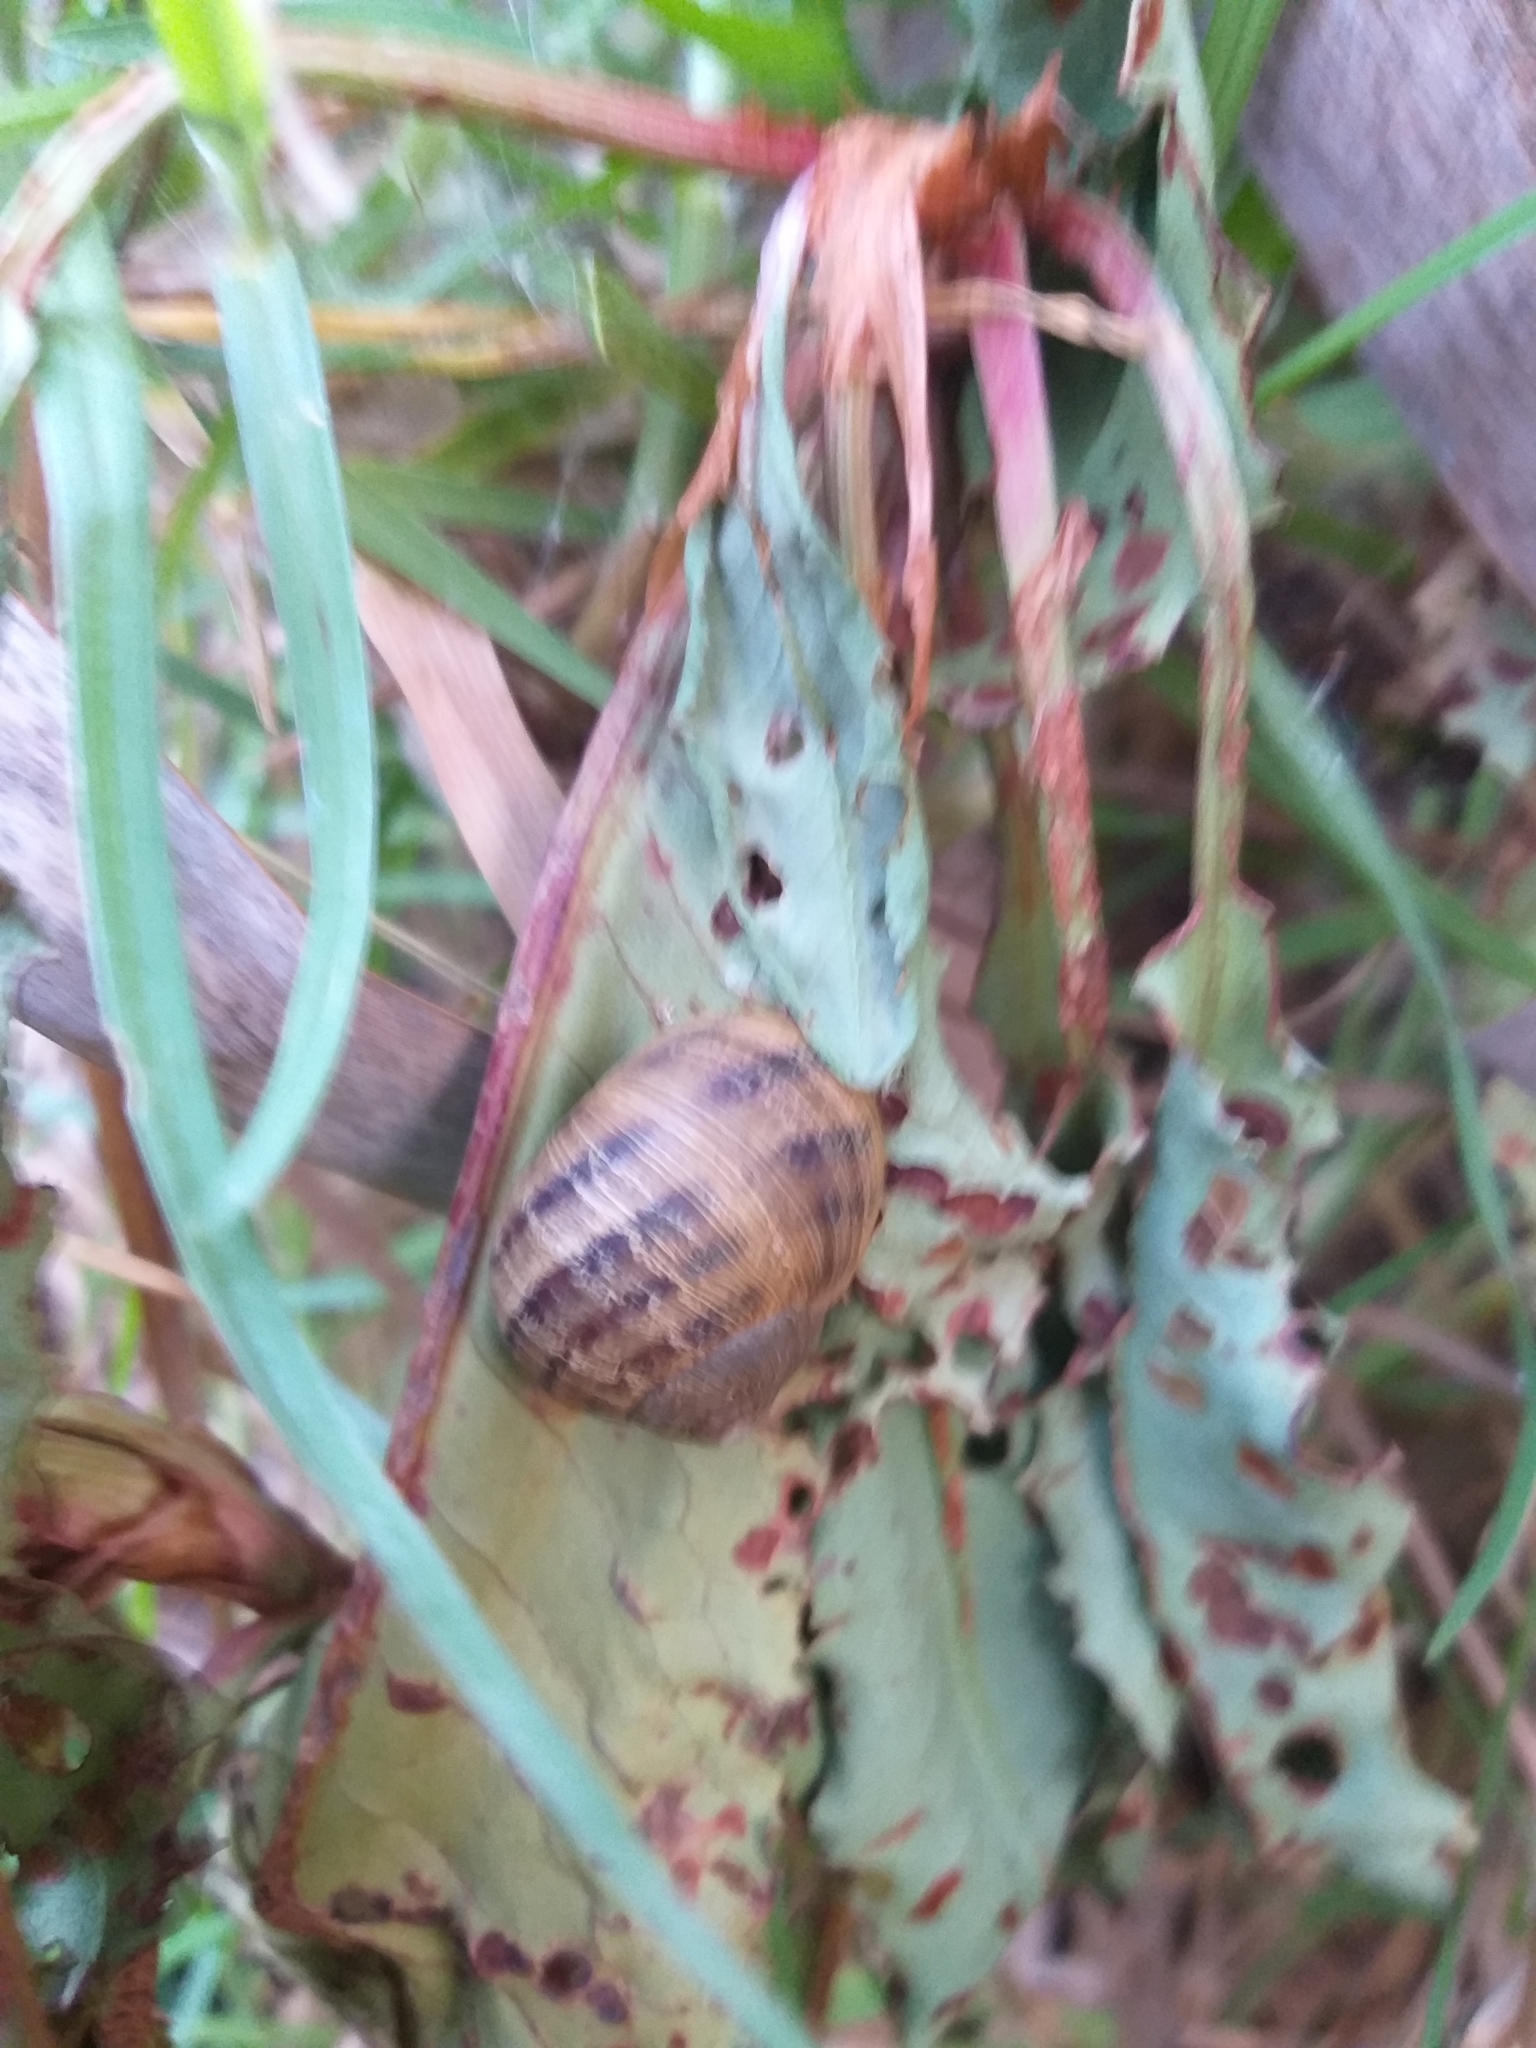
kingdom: Animalia
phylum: Mollusca
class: Gastropoda
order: Stylommatophora
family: Helicidae
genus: Cornu
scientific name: Cornu aspersum
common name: Brown garden snail
